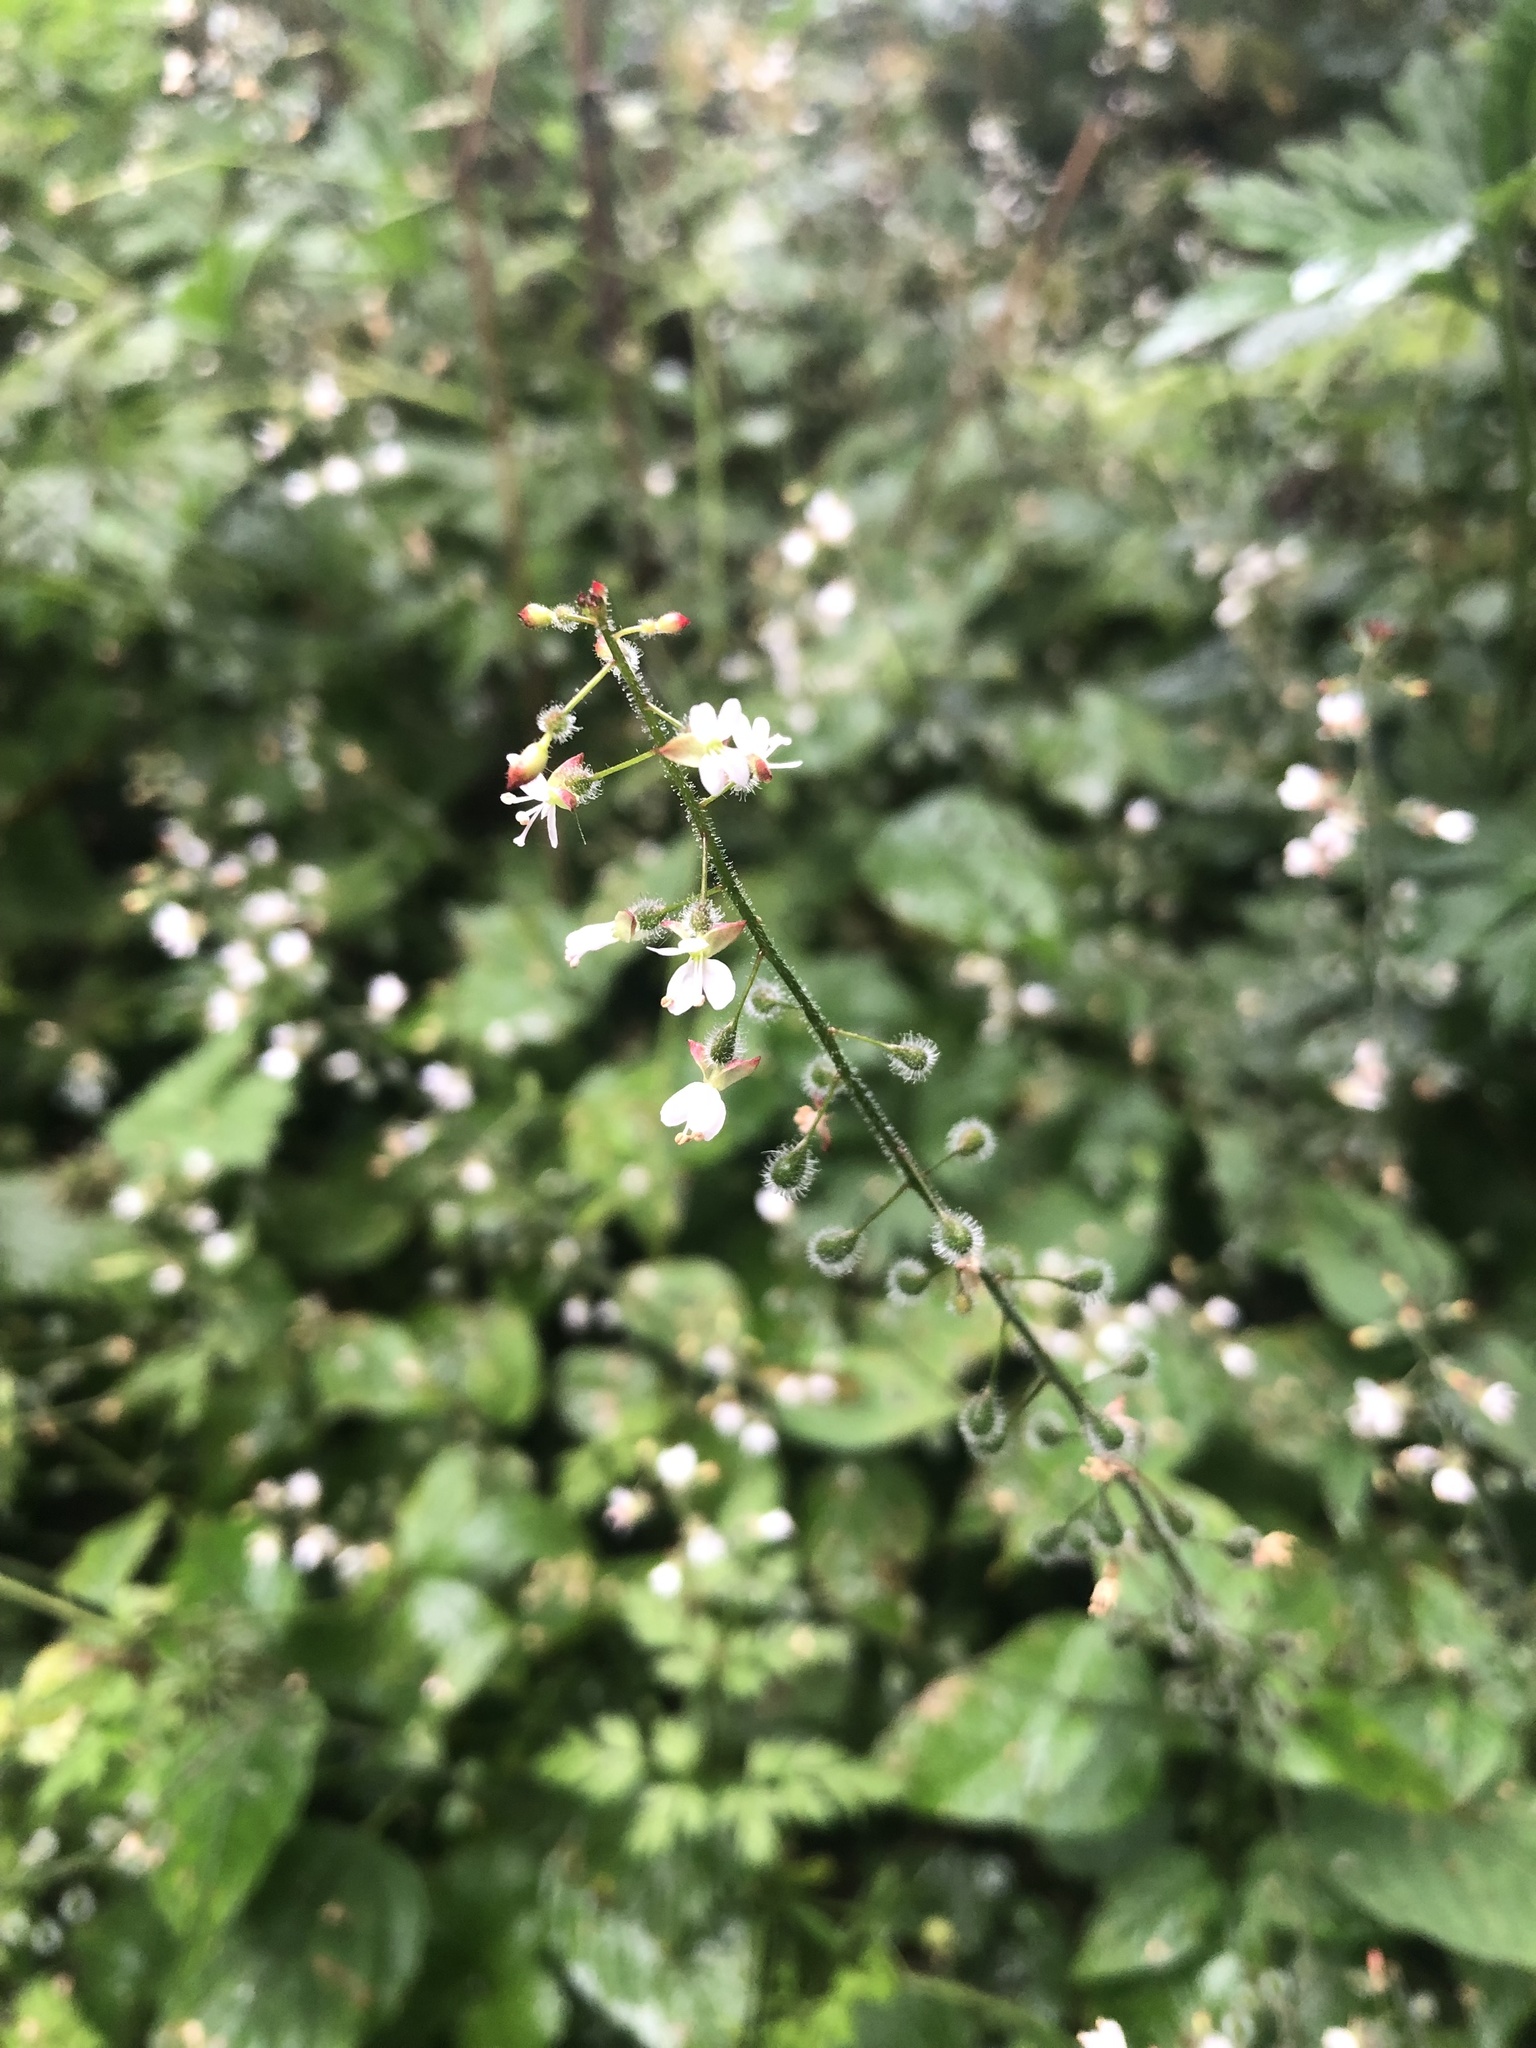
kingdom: Plantae
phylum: Tracheophyta
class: Magnoliopsida
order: Myrtales
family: Onagraceae
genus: Circaea
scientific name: Circaea lutetiana
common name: Enchanter's-nightshade
